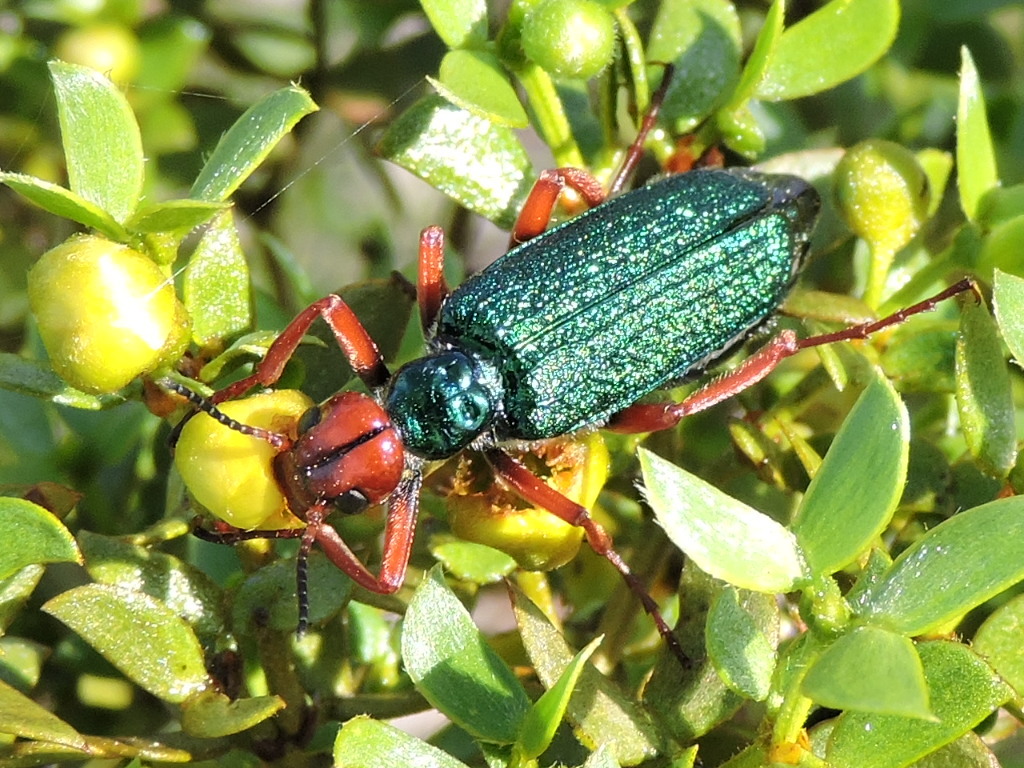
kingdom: Animalia
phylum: Arthropoda
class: Insecta
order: Coleoptera
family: Meloidae
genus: Eupompha
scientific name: Eupompha fissiceps
